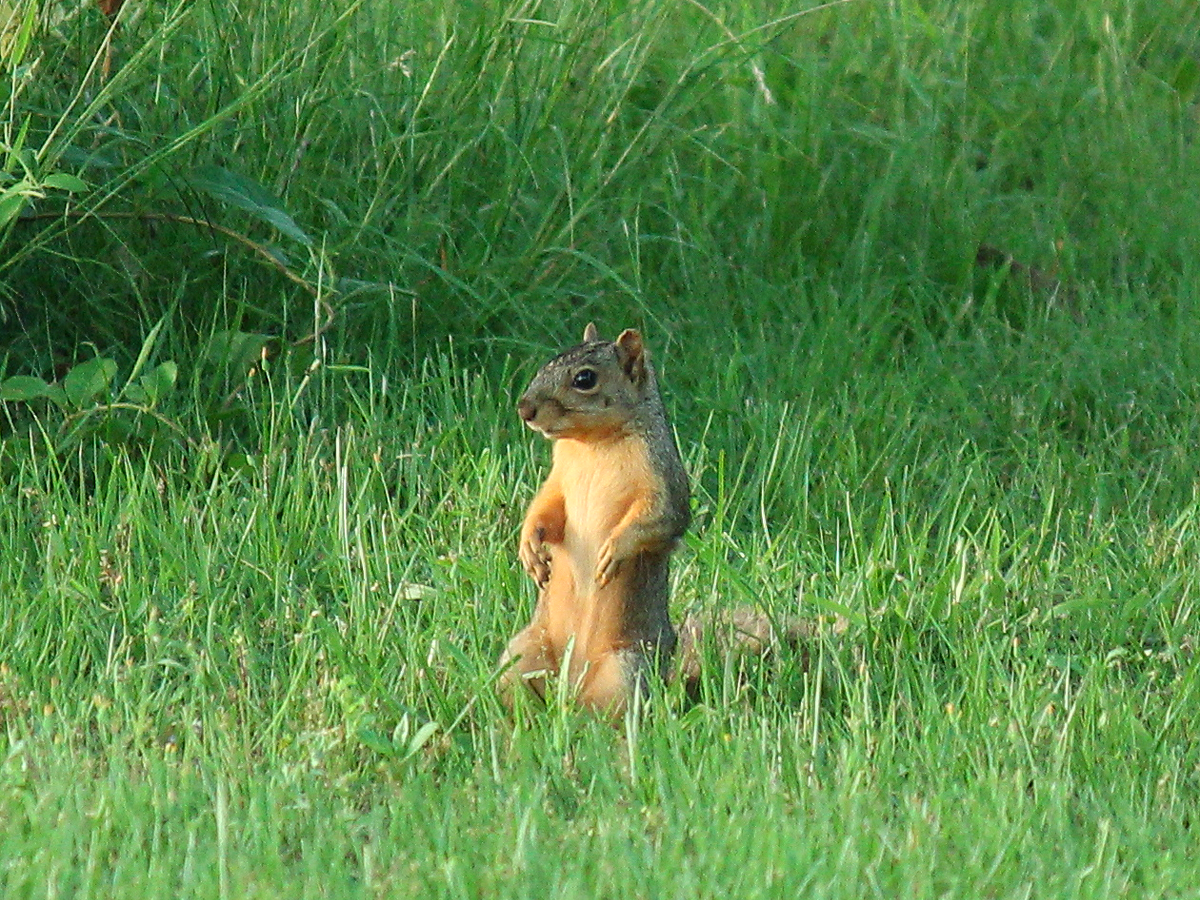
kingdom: Animalia
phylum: Chordata
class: Mammalia
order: Rodentia
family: Sciuridae
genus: Sciurus
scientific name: Sciurus niger
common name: Fox squirrel
